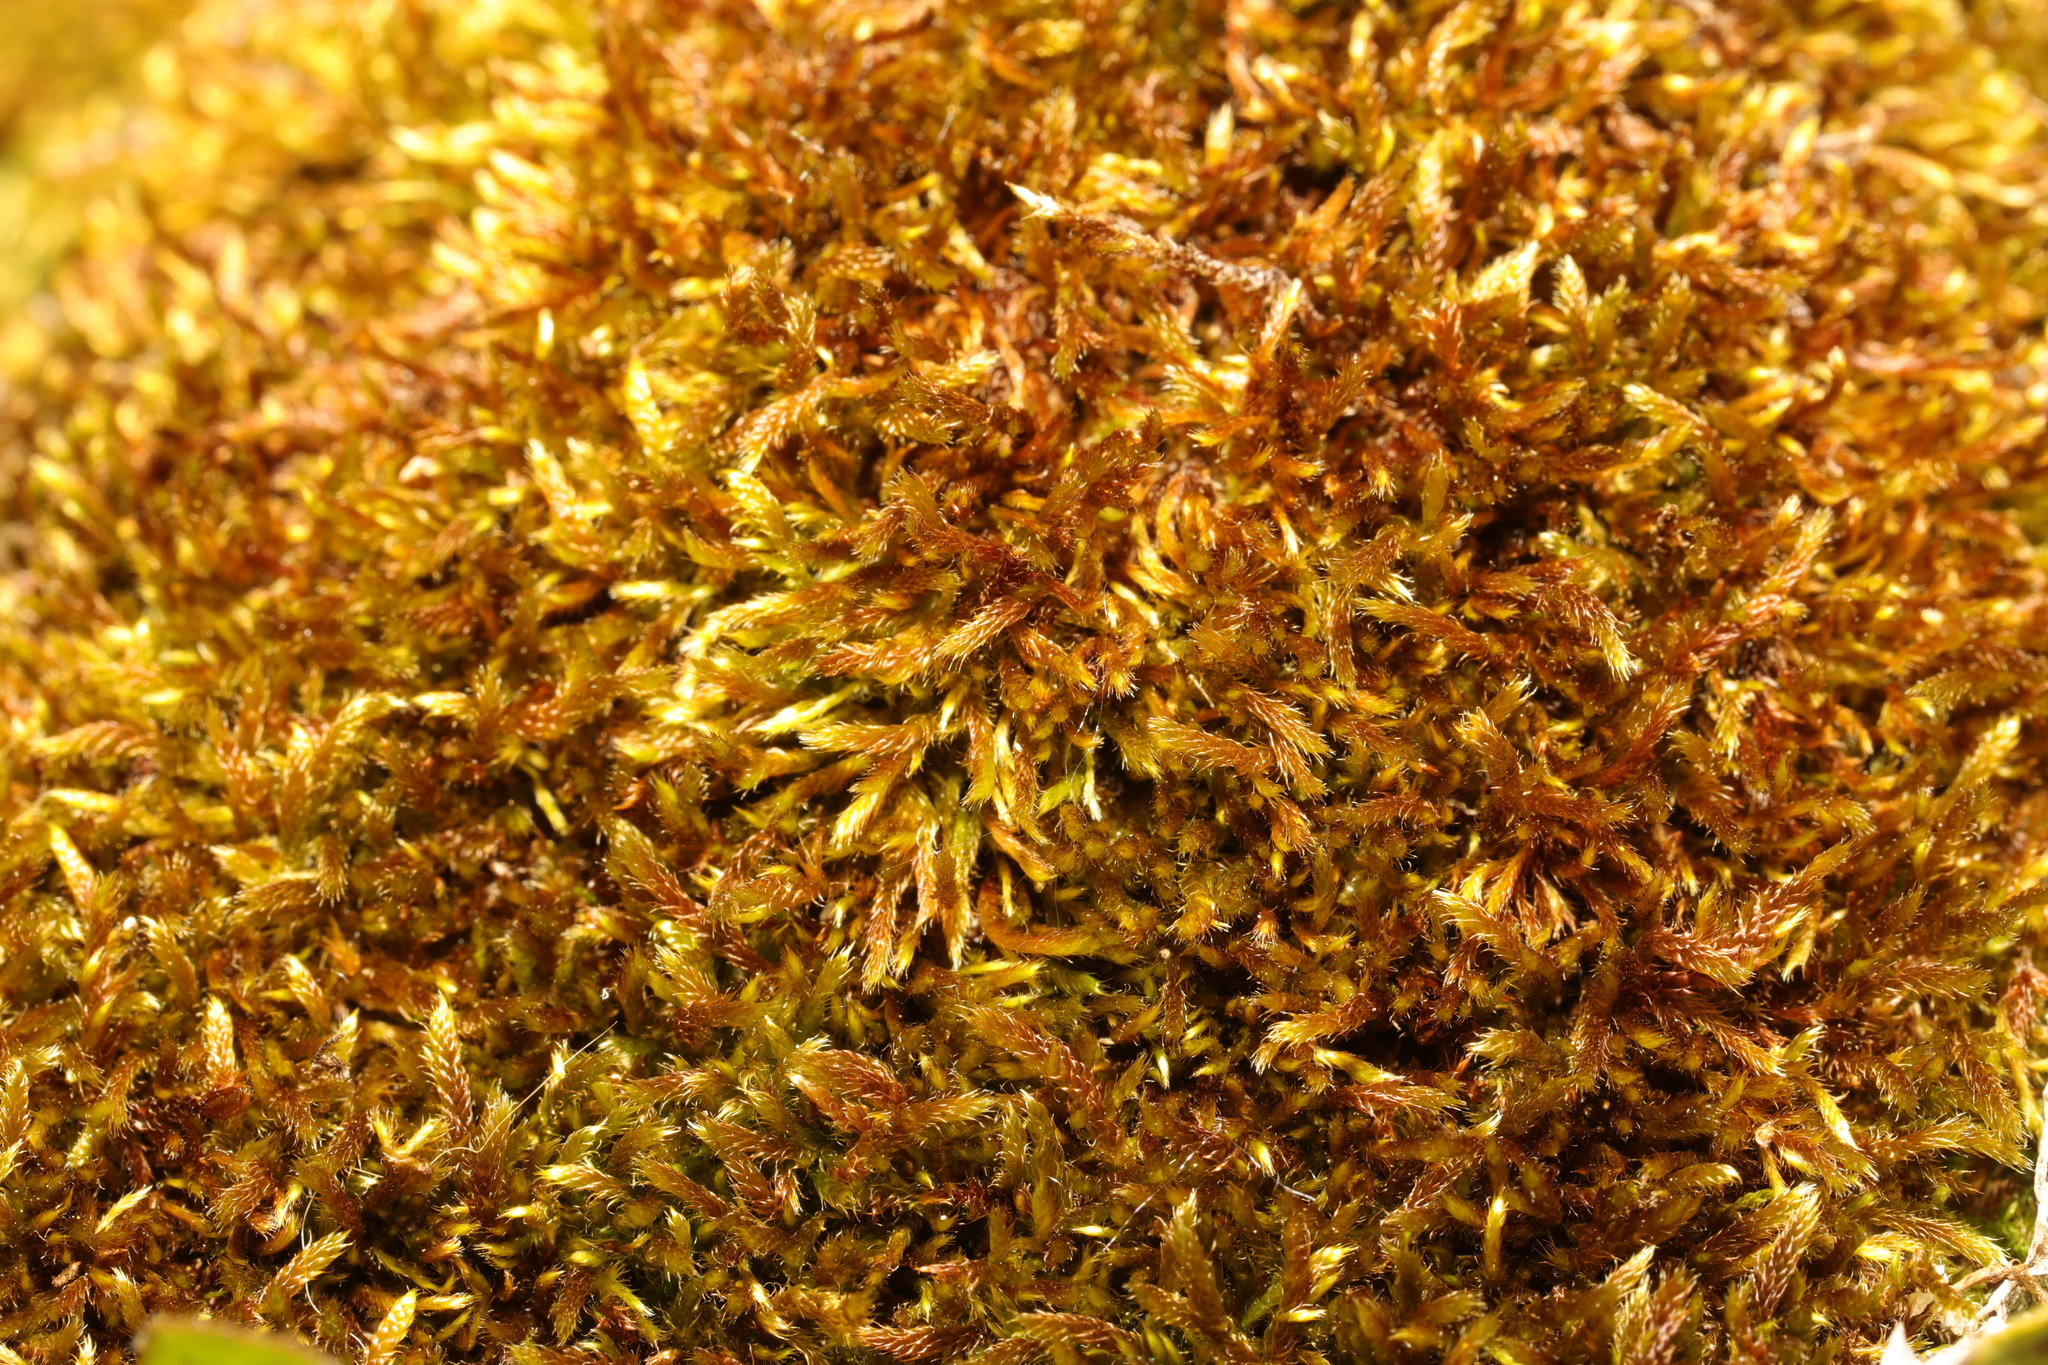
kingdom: Plantae
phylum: Bryophyta
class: Bryopsida
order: Hypnales
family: Hypnaceae
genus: Hypnum
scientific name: Hypnum cupressiforme
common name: Cypress-leaved plait-moss
